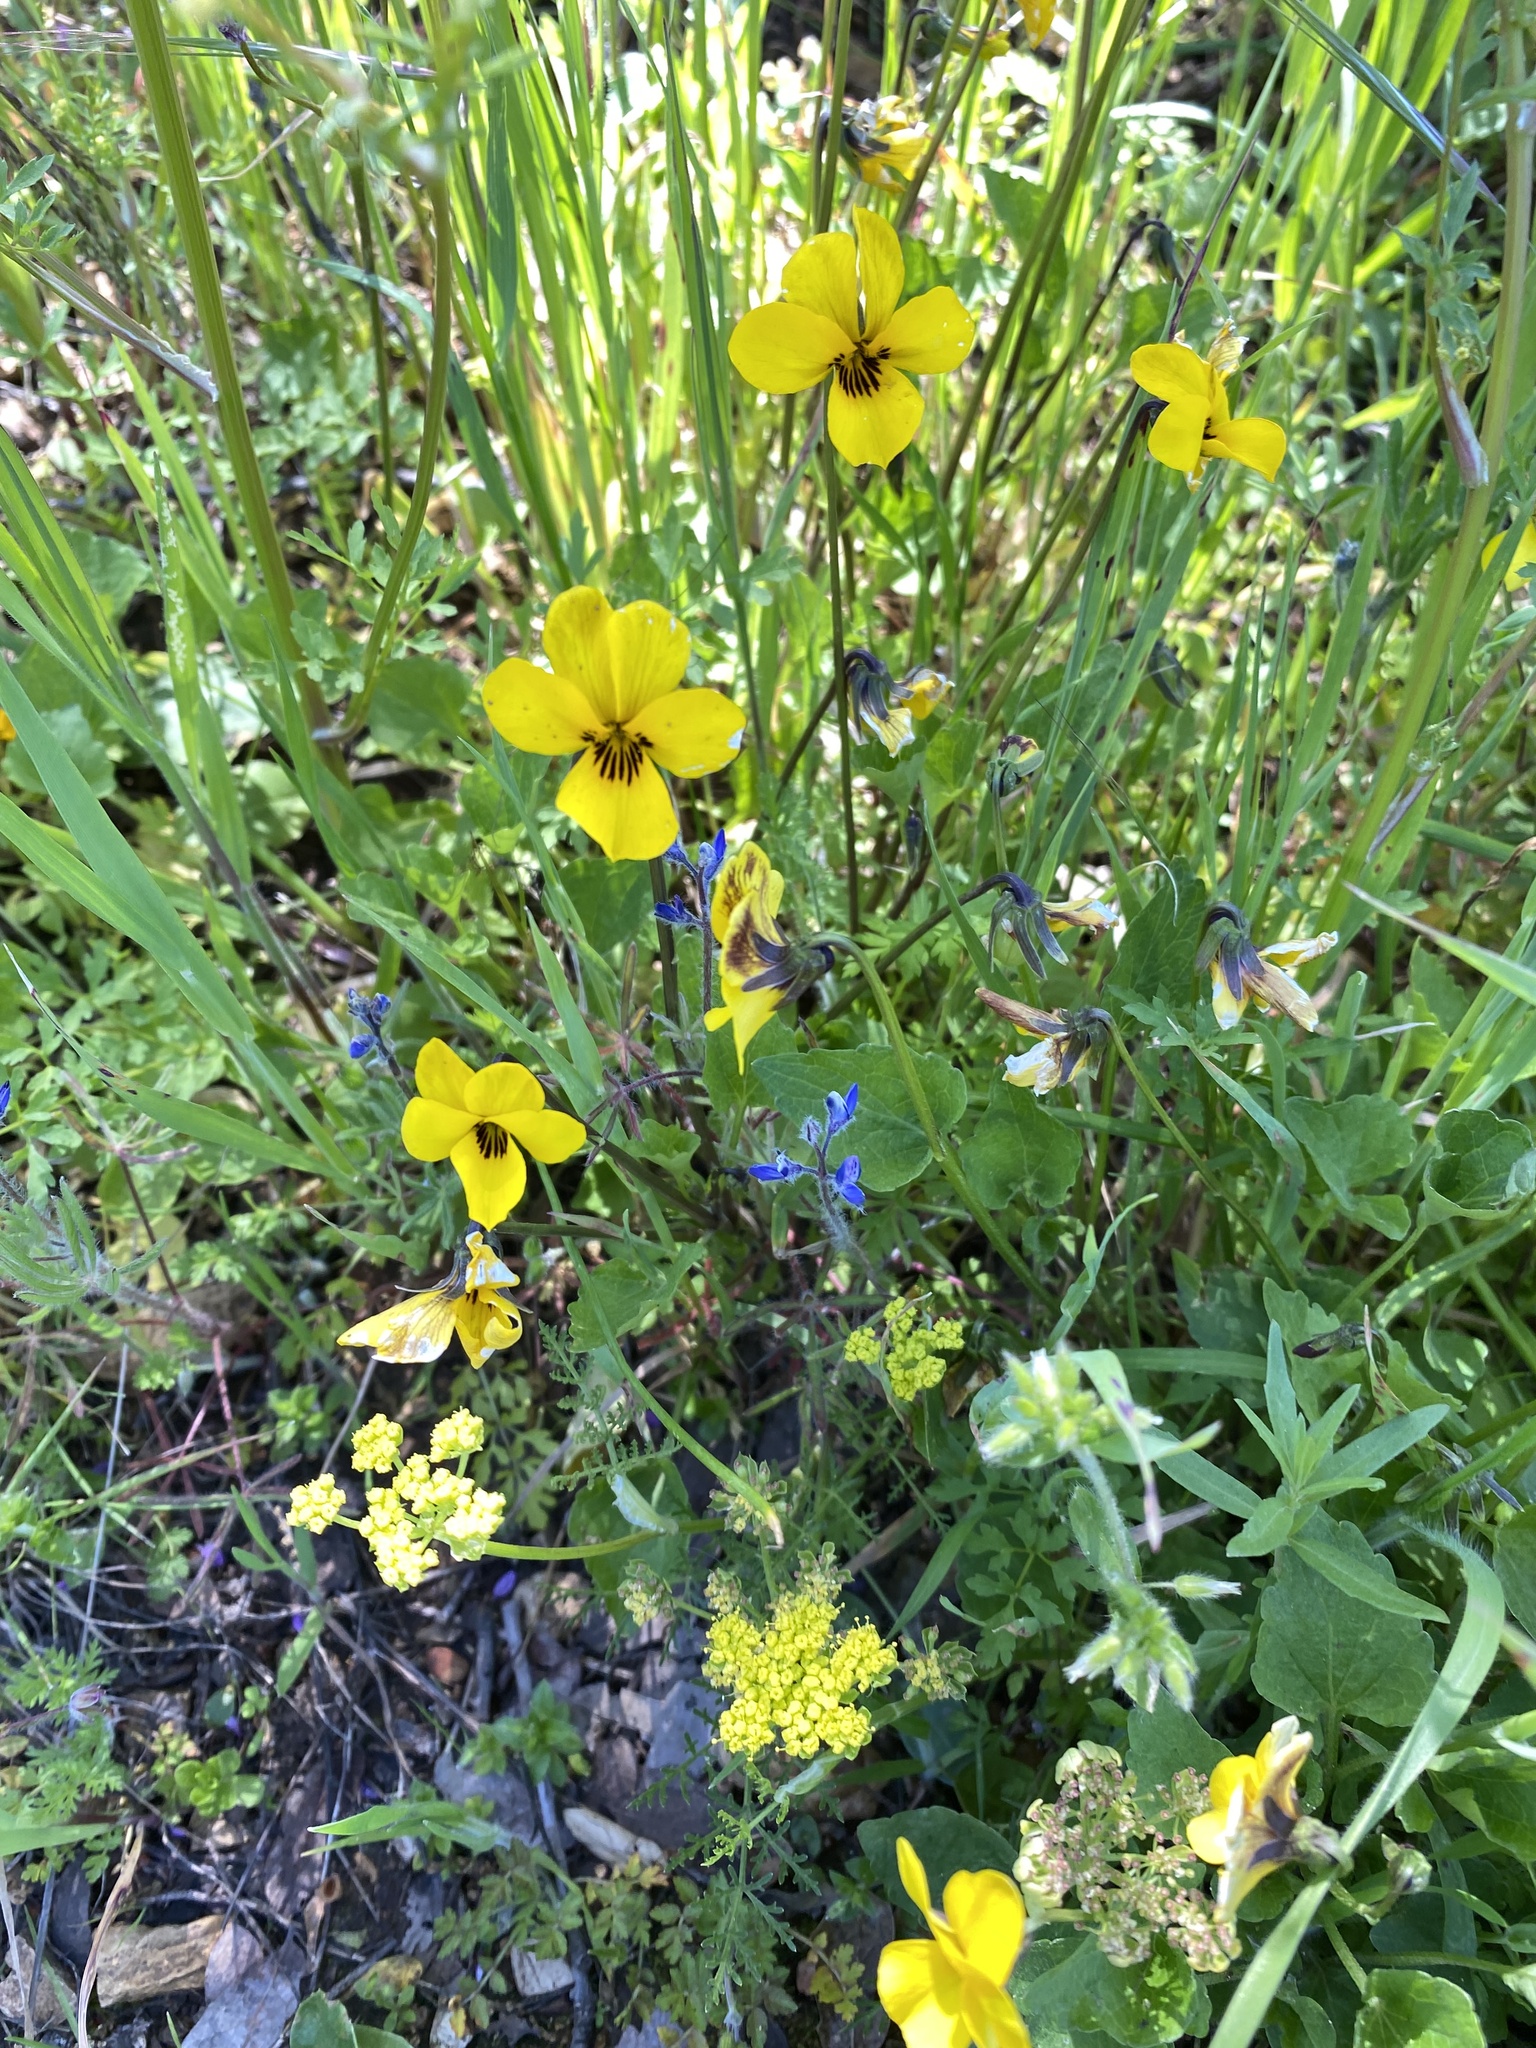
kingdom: Plantae
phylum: Tracheophyta
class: Magnoliopsida
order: Malpighiales
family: Violaceae
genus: Viola
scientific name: Viola pedunculata
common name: California golden violet
